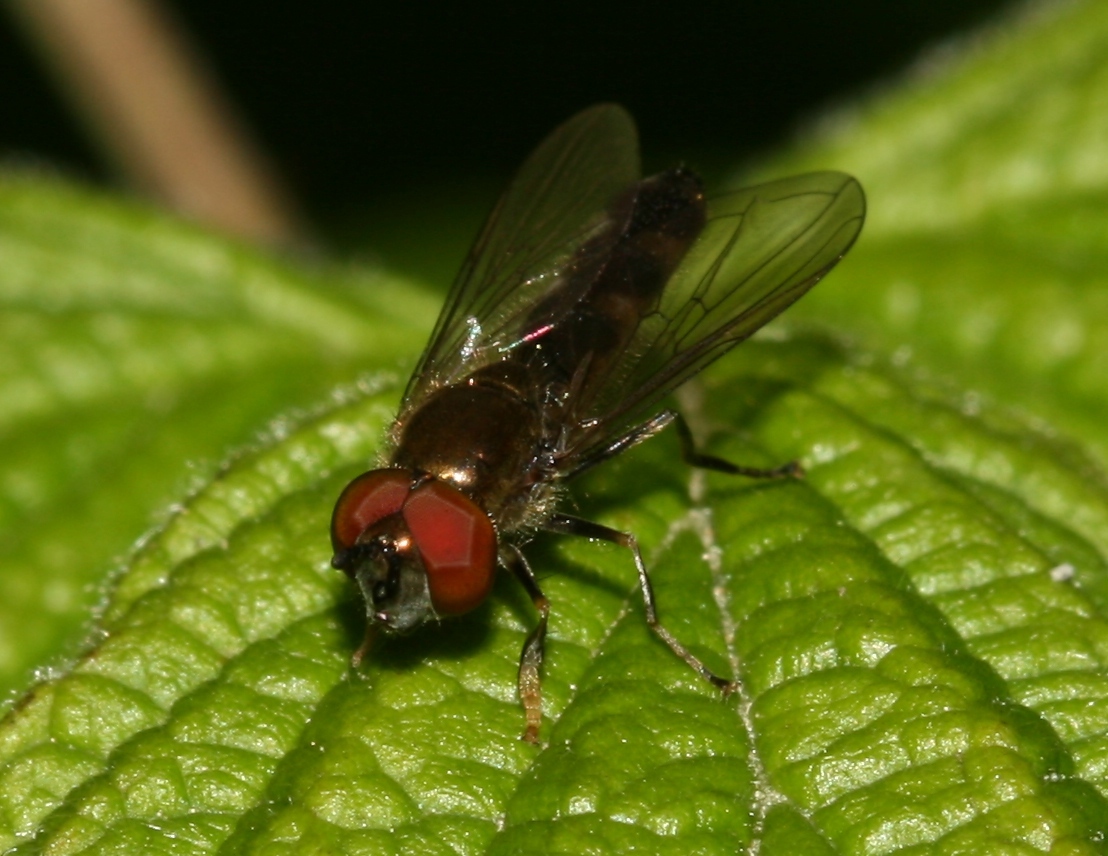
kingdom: Animalia
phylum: Arthropoda
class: Insecta
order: Diptera
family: Syrphidae
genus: Platycheirus
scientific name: Platycheirus albimanus
